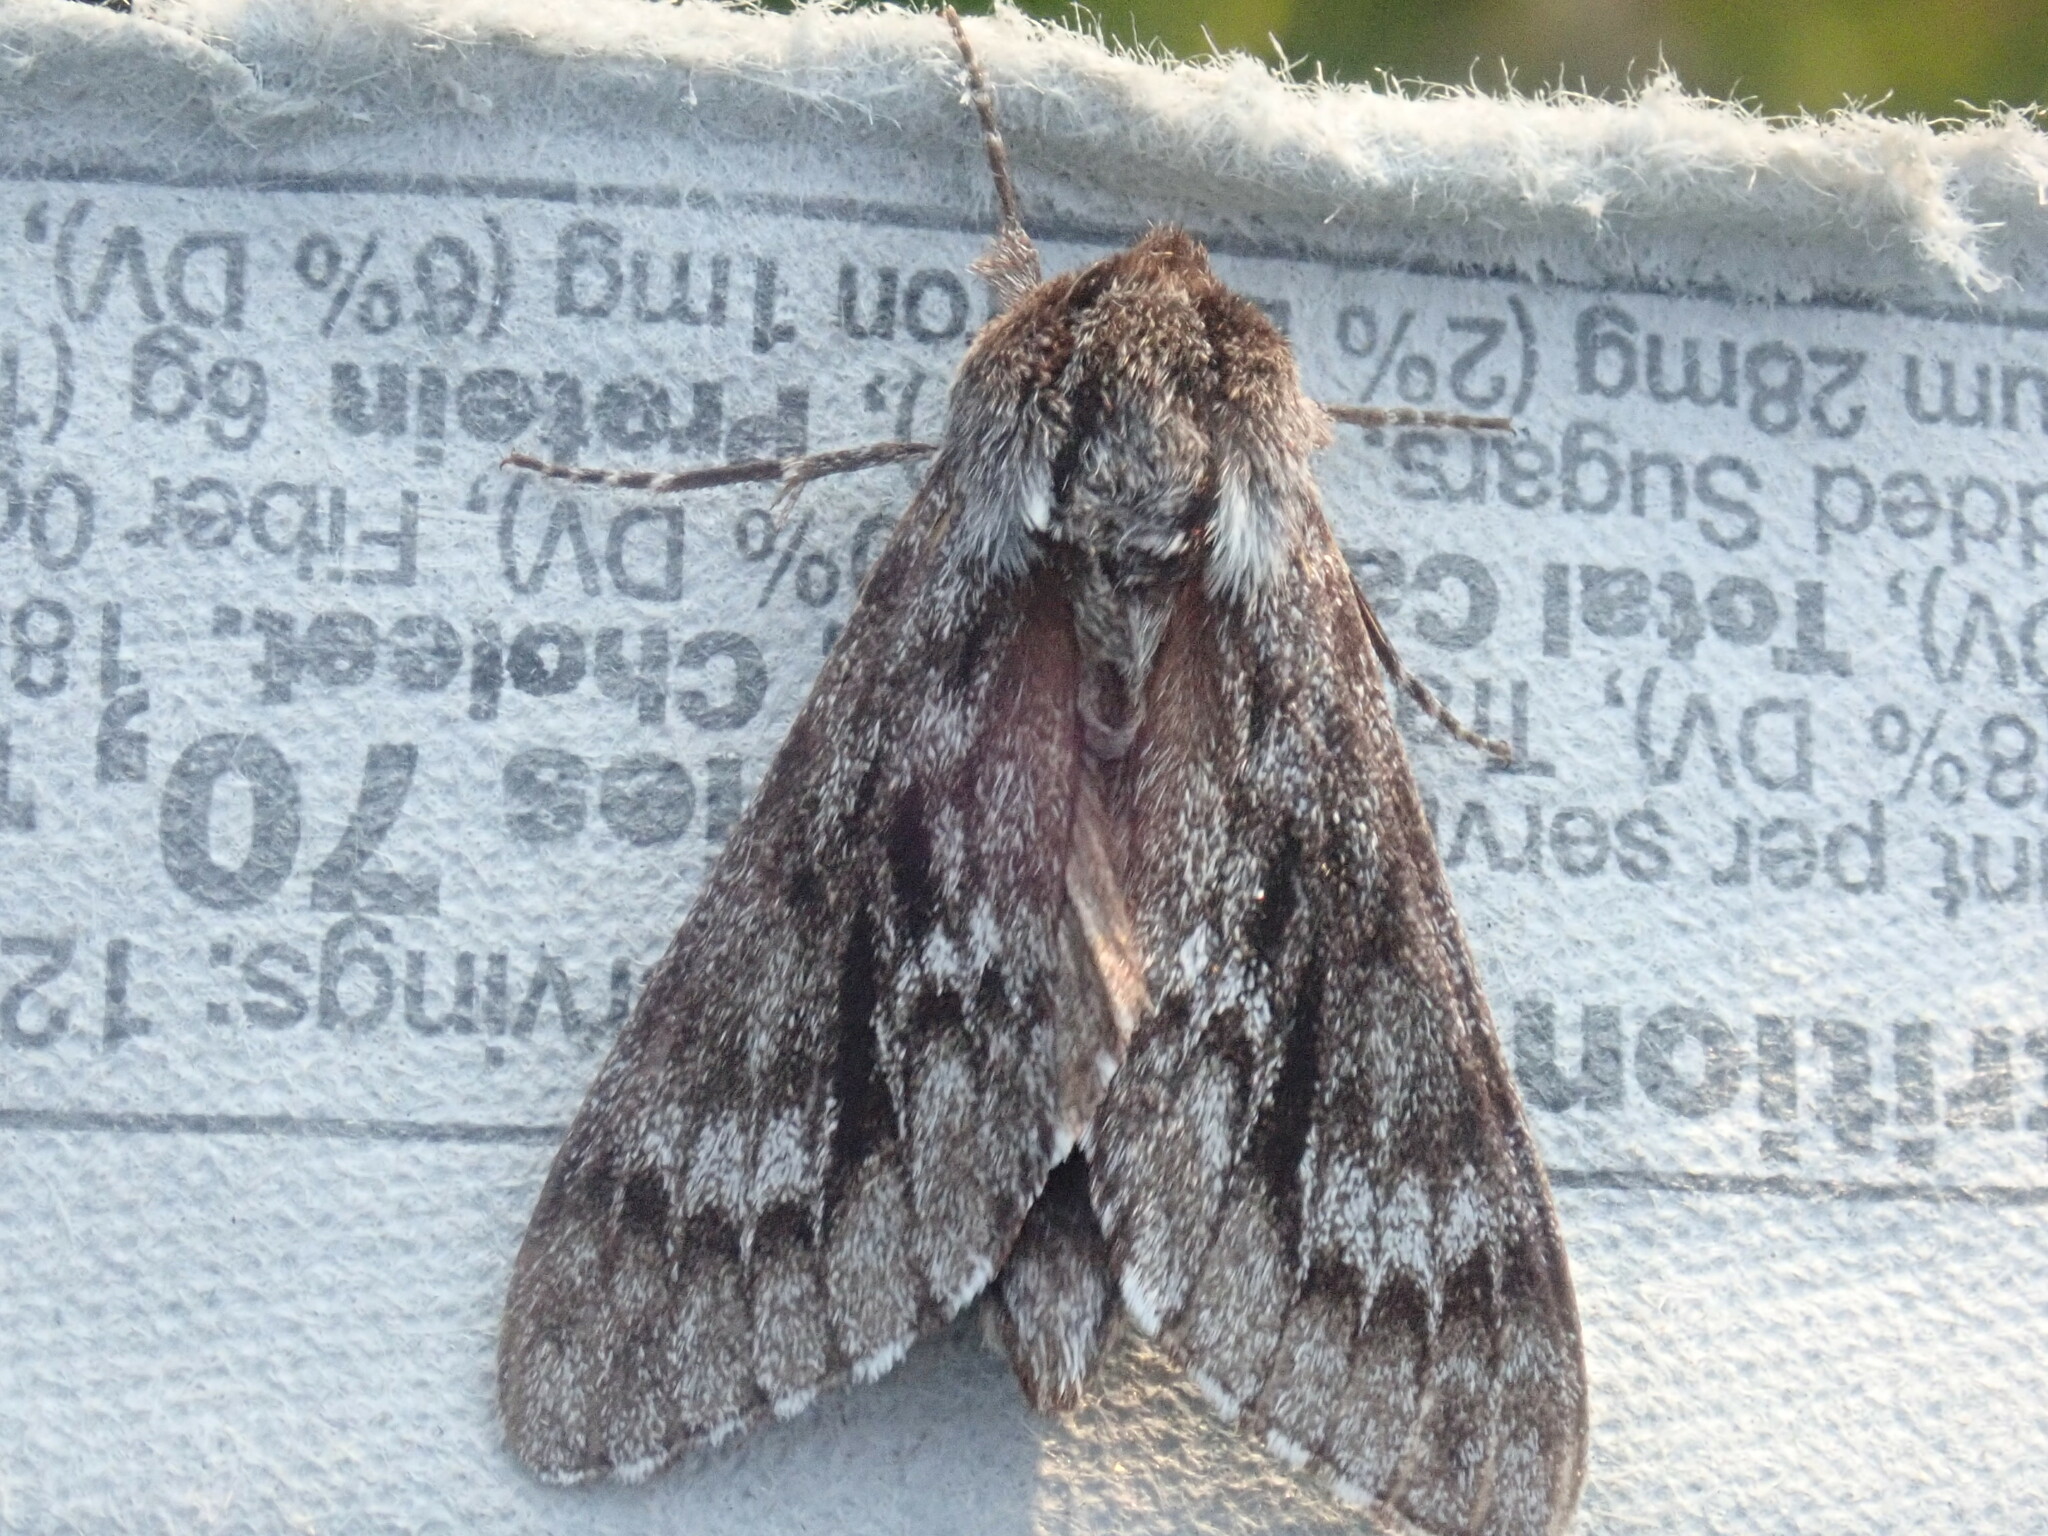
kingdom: Animalia
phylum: Arthropoda
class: Insecta
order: Lepidoptera
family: Sphingidae
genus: Lapara
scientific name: Lapara bombycoides
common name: Northern pine sphinx
